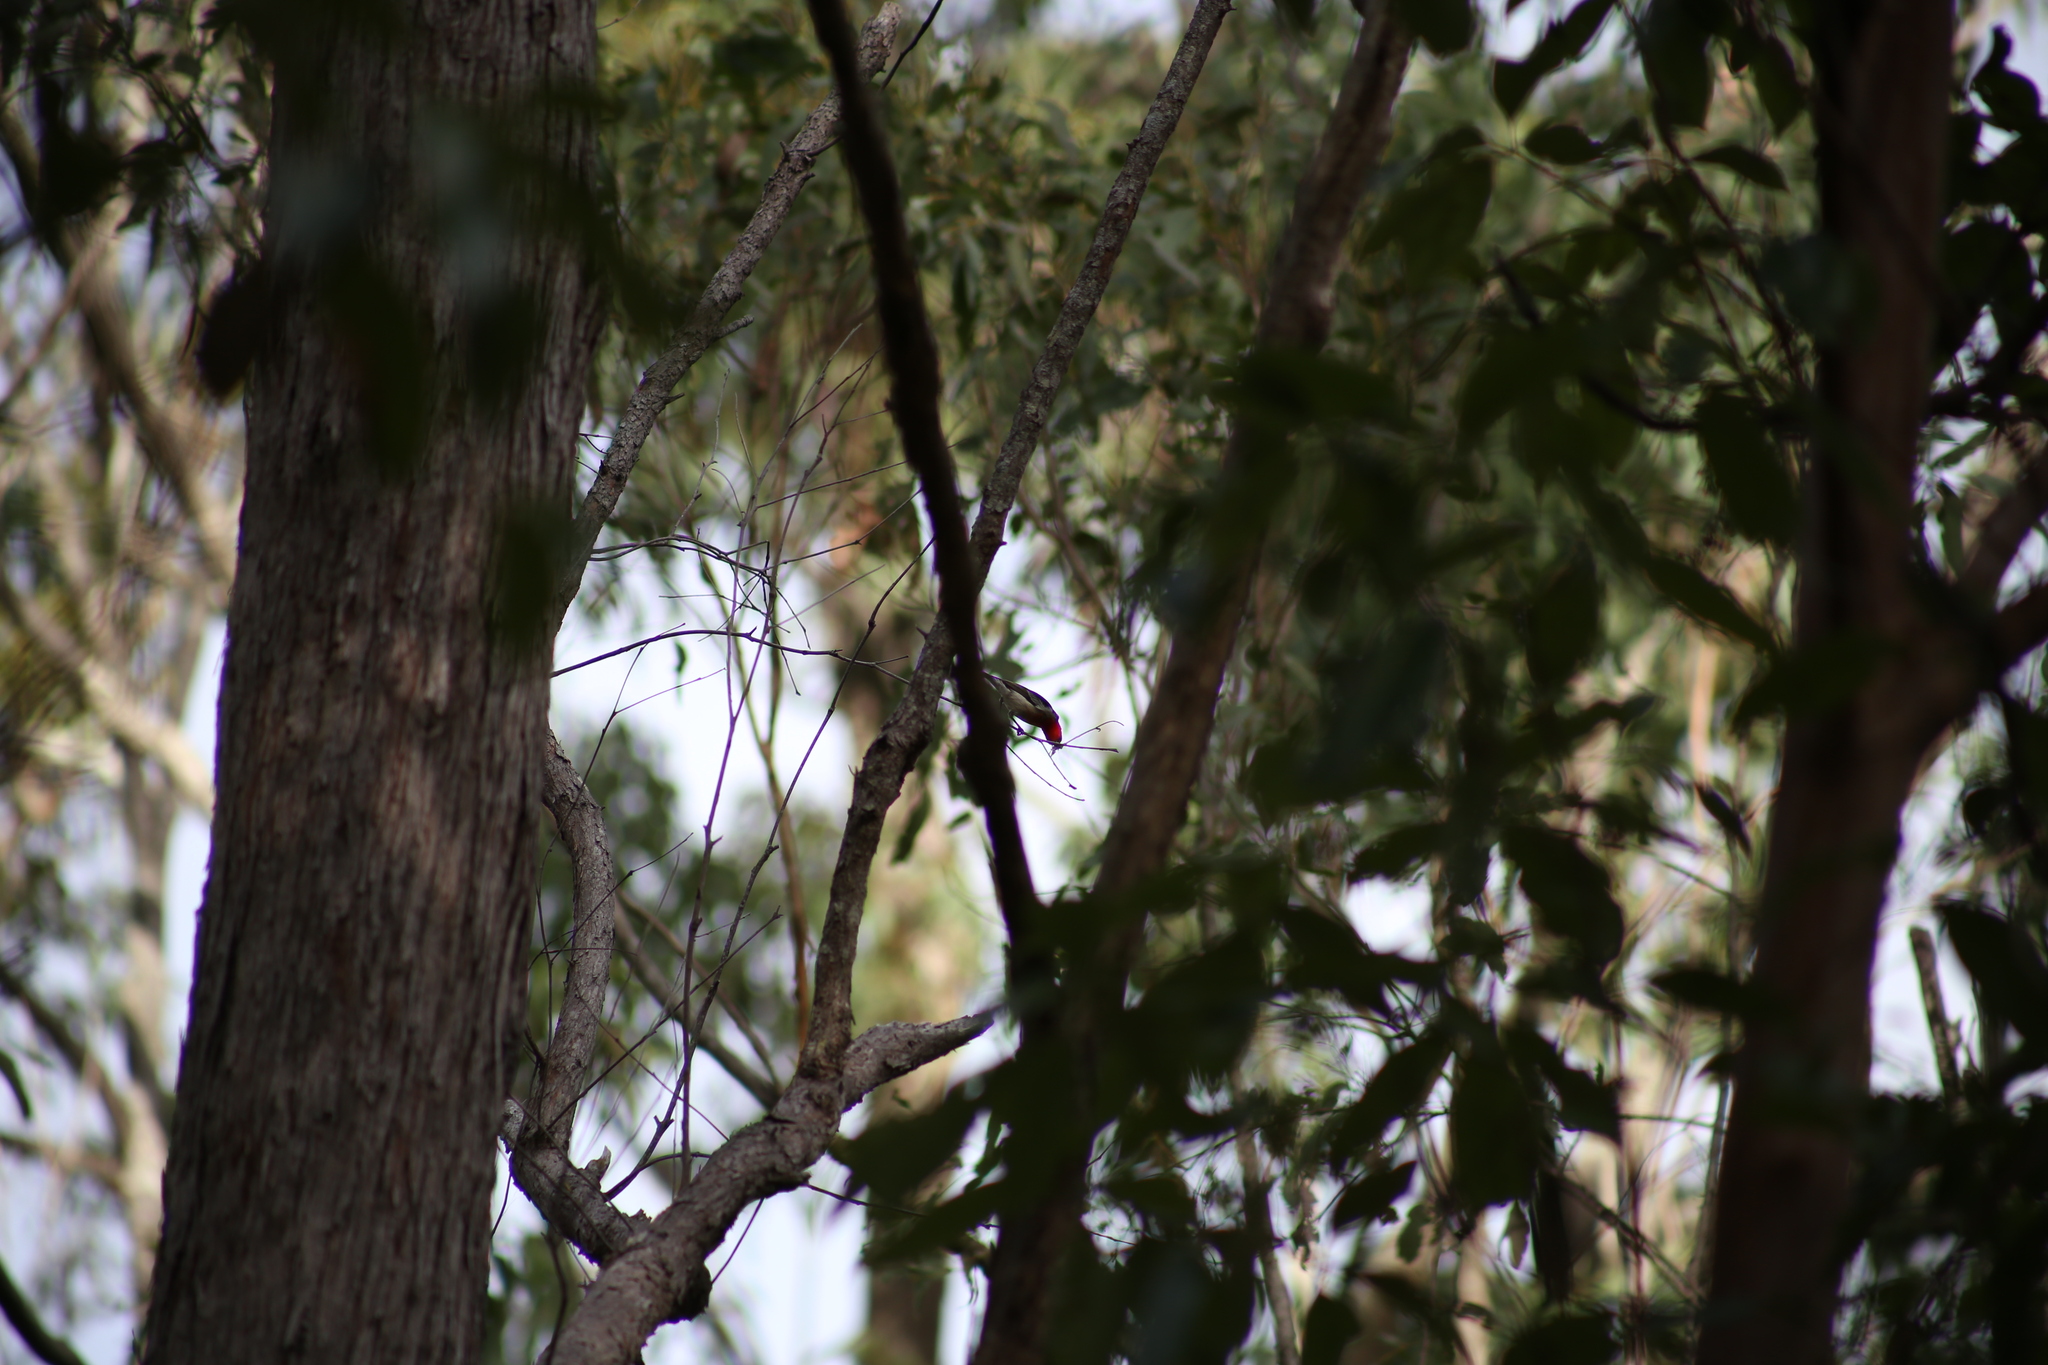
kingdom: Animalia
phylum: Chordata
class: Aves
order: Passeriformes
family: Meliphagidae
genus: Myzomela
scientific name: Myzomela sanguinolenta
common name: Scarlet myzomela
